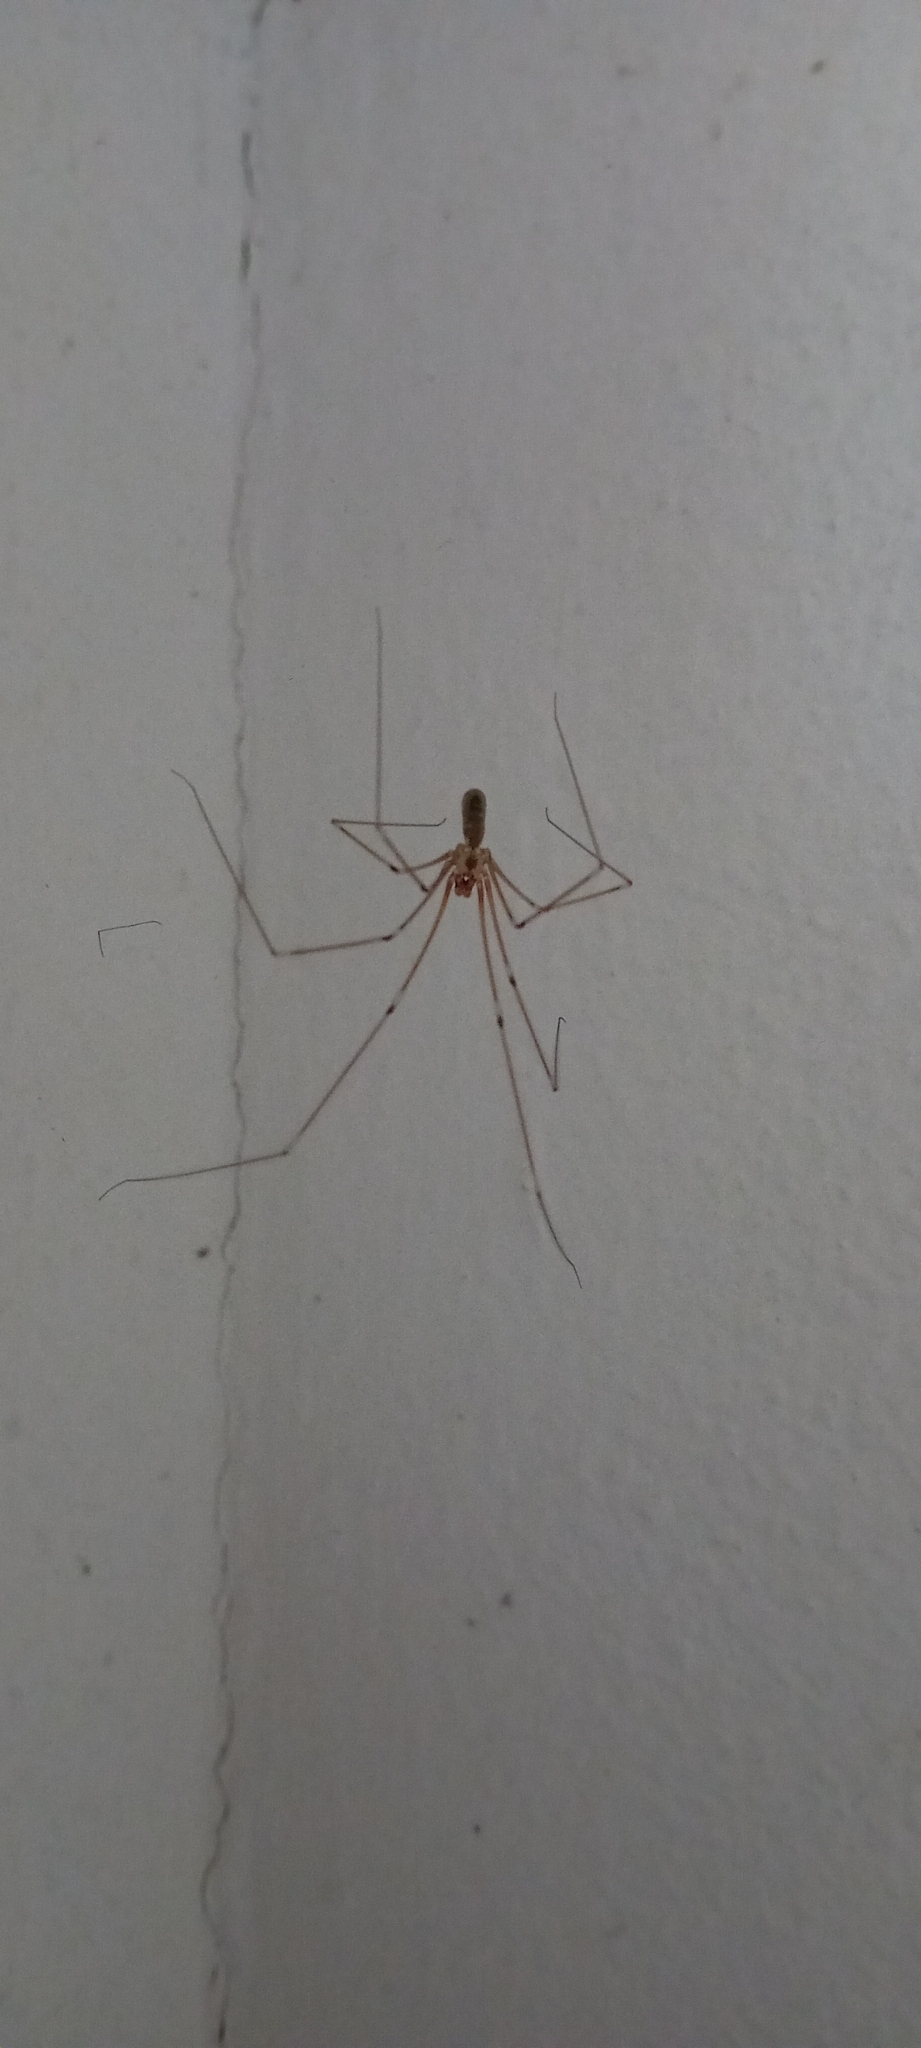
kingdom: Animalia
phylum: Arthropoda
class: Arachnida
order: Araneae
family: Pholcidae
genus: Pholcus
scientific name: Pholcus phalangioides
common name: Longbodied cellar spider
